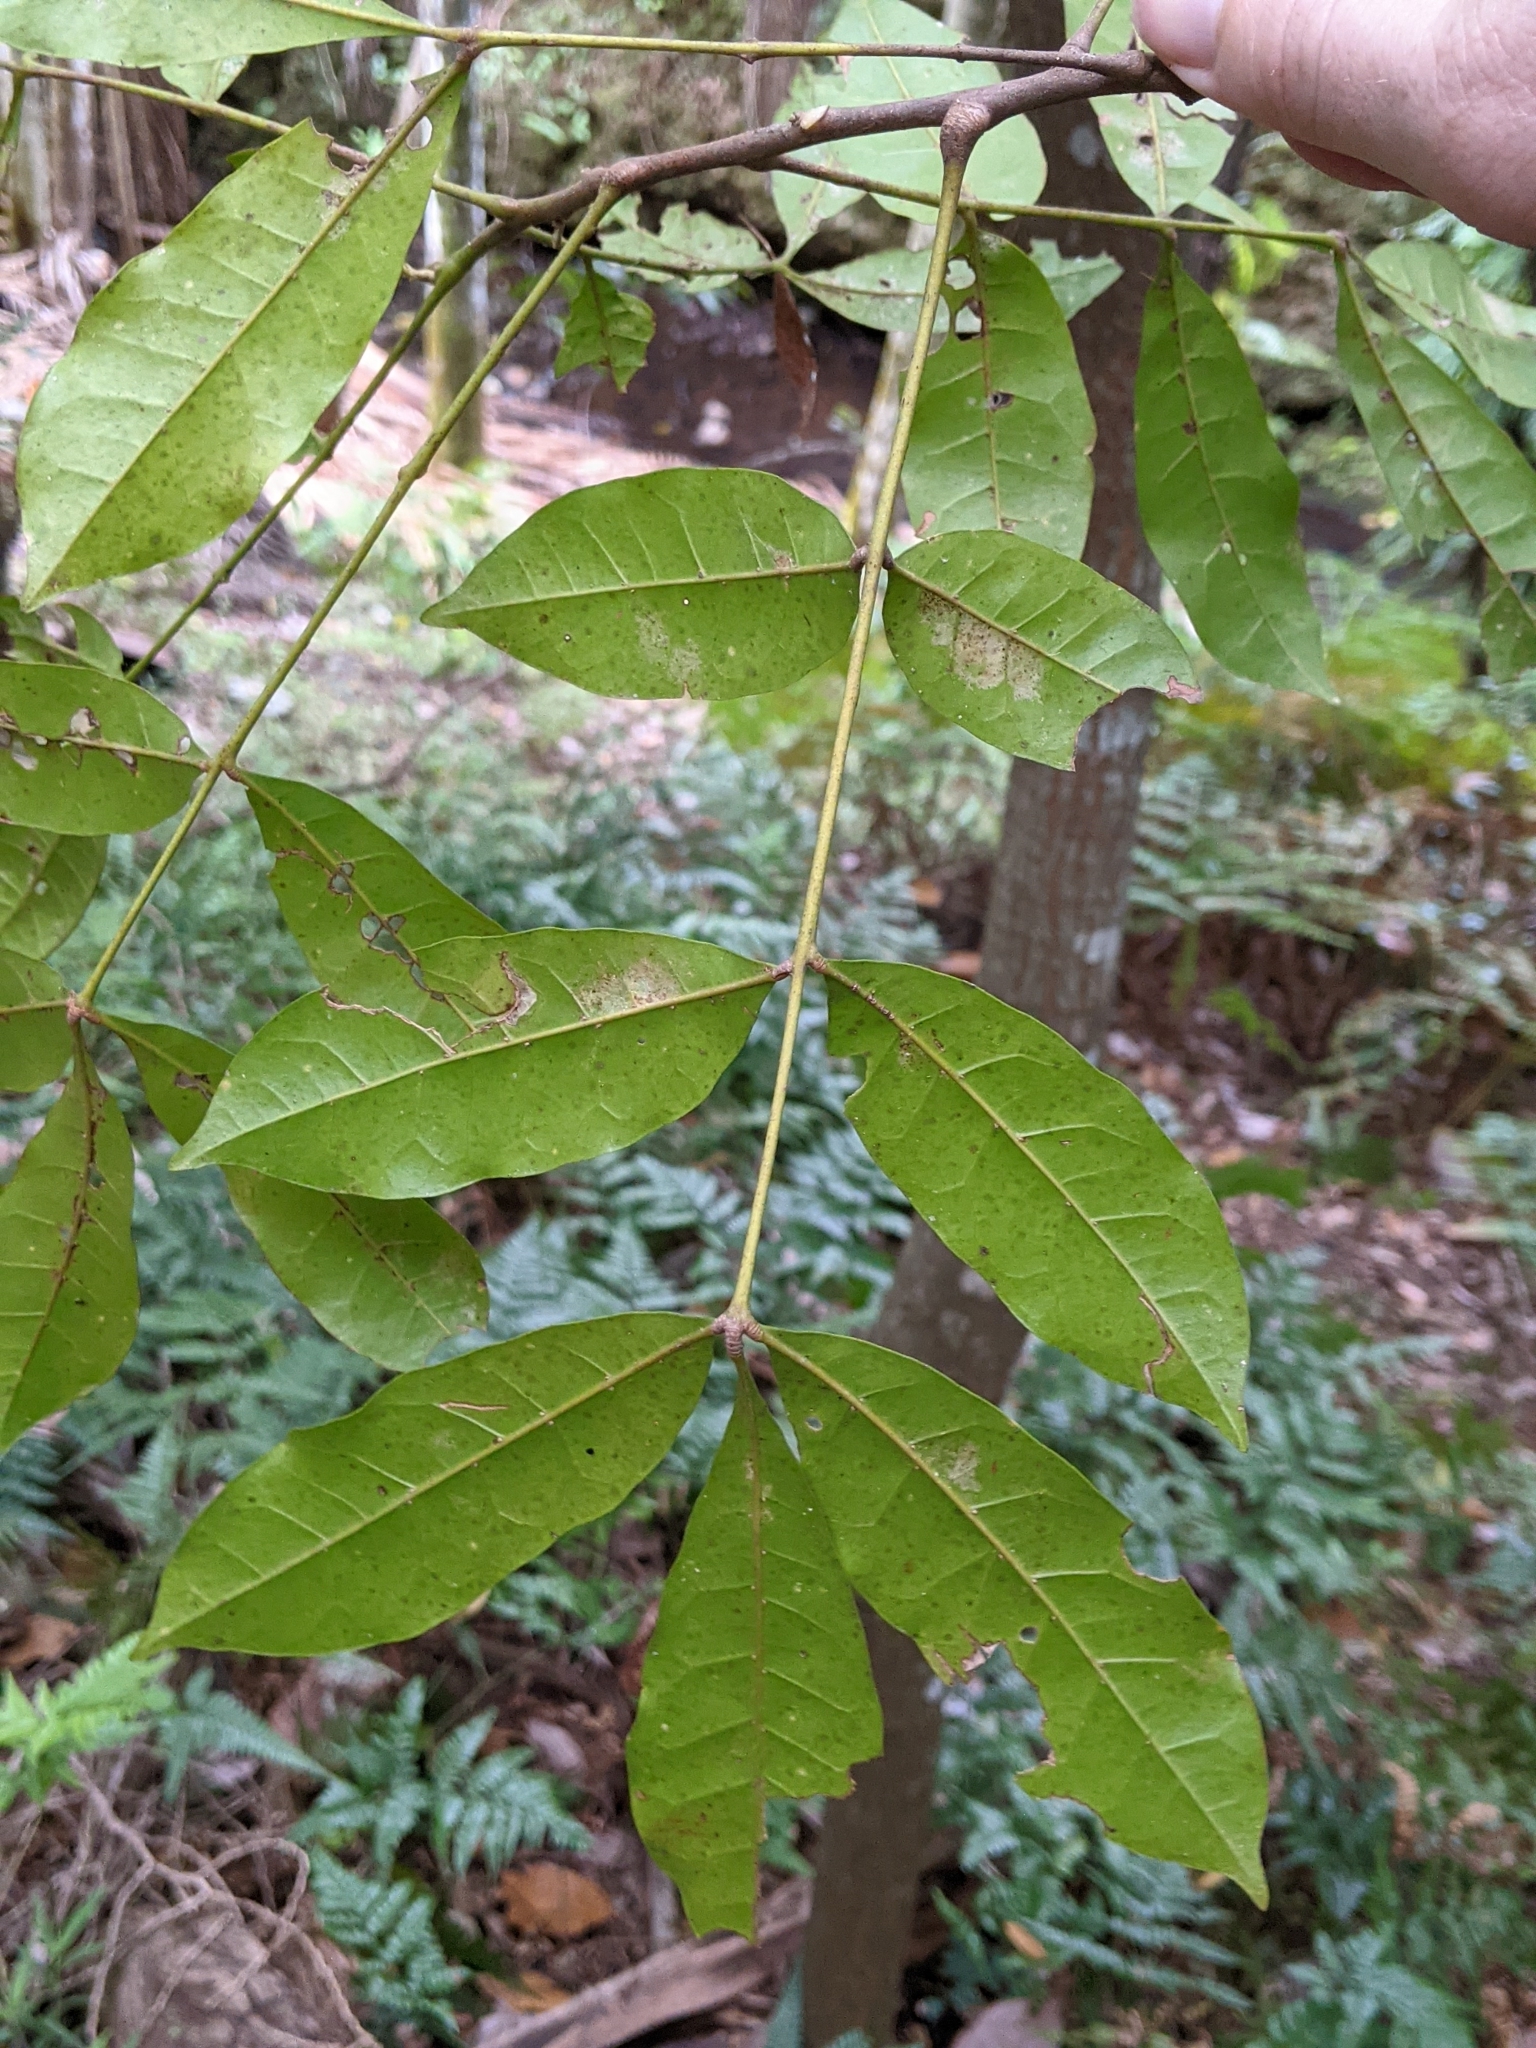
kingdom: Plantae
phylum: Tracheophyta
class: Magnoliopsida
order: Sapindales
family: Meliaceae
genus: Synoum
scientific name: Synoum glandulosum
